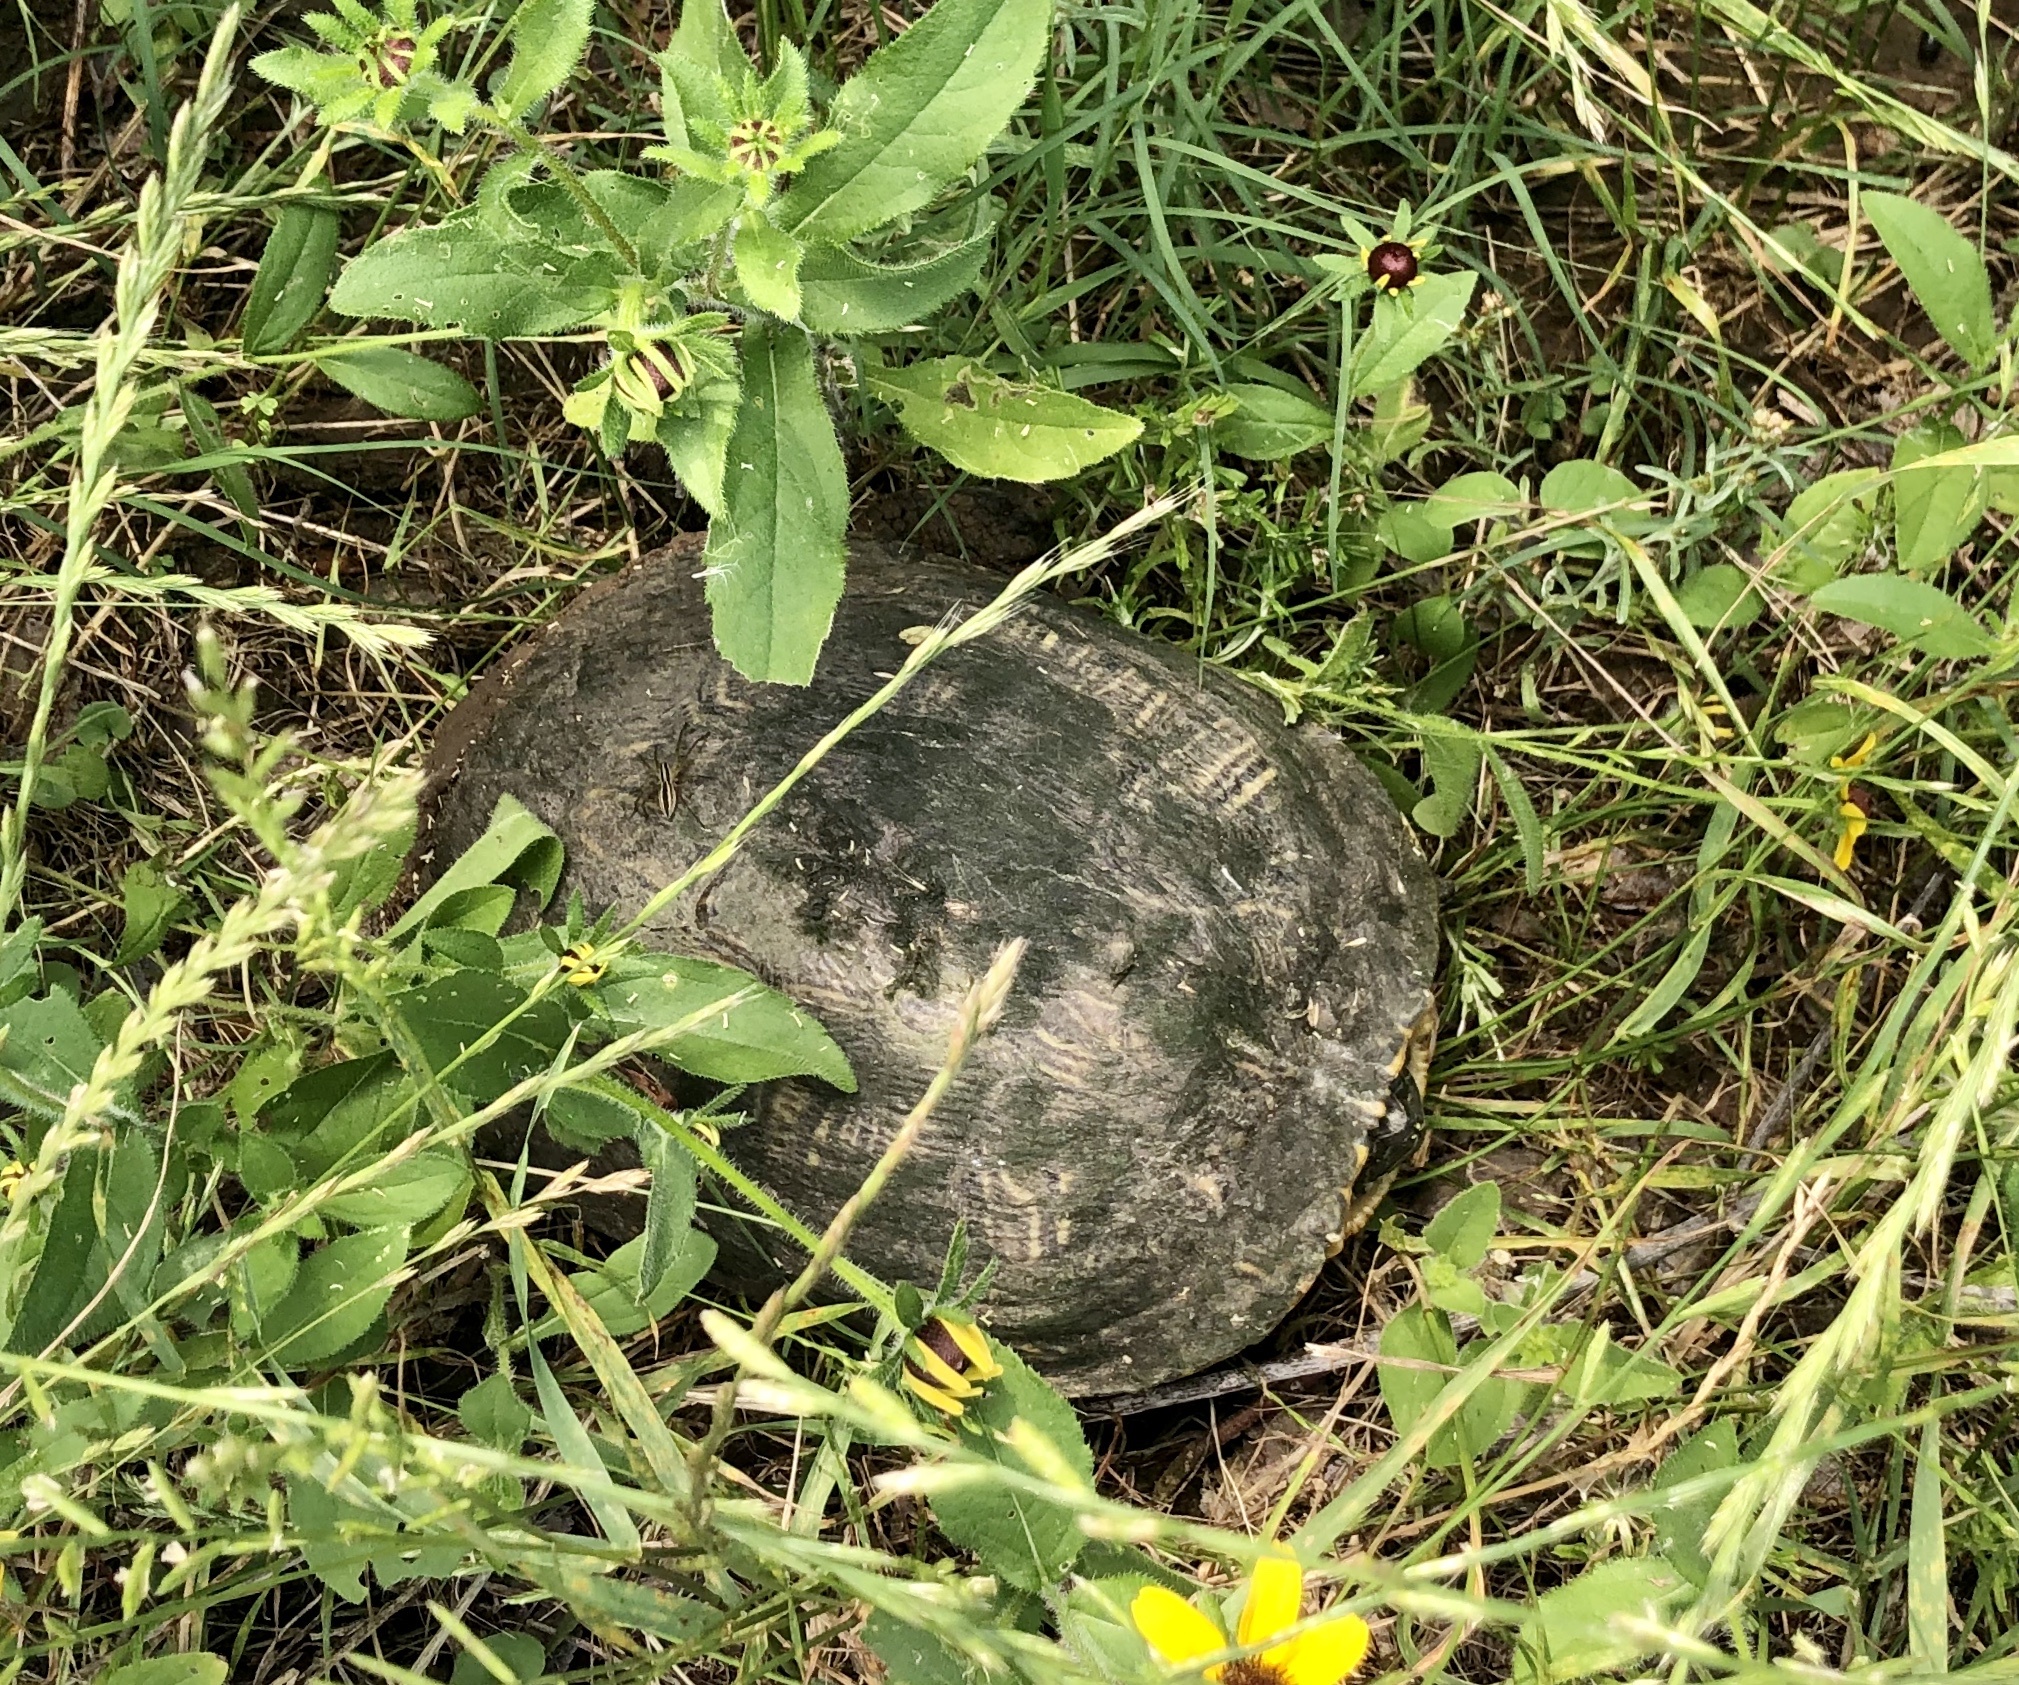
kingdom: Animalia
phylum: Chordata
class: Testudines
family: Emydidae
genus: Trachemys
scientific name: Trachemys scripta
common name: Slider
